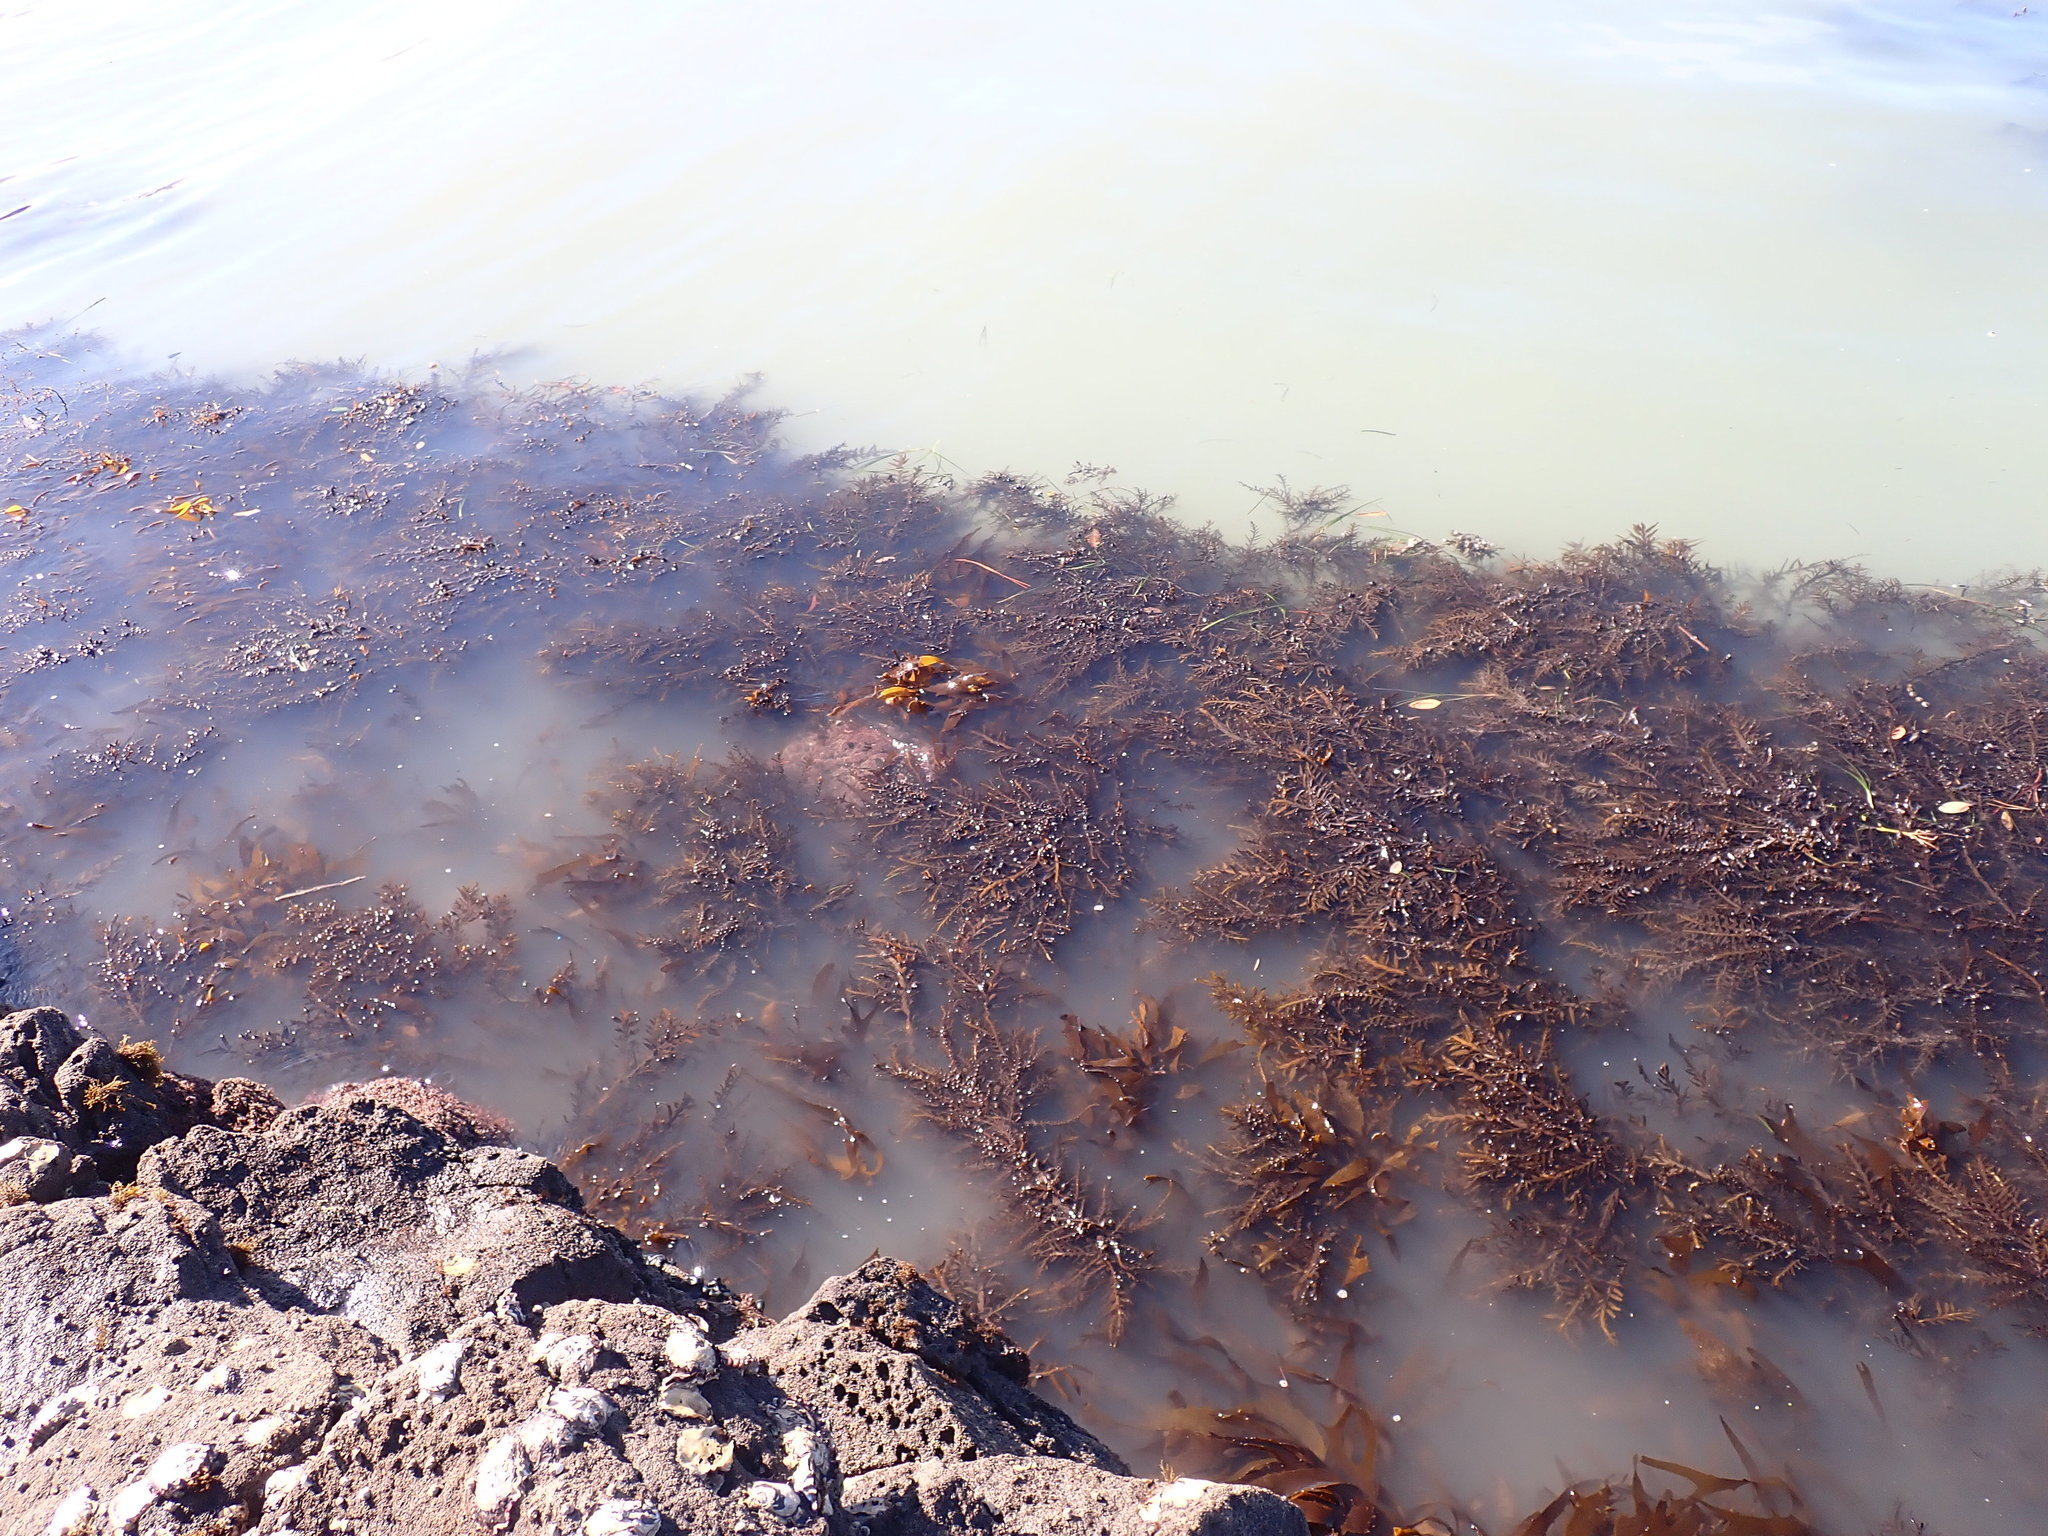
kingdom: Chromista
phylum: Ochrophyta
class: Phaeophyceae
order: Fucales
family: Sargassaceae
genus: Carpophyllum
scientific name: Carpophyllum maschalocarpum
